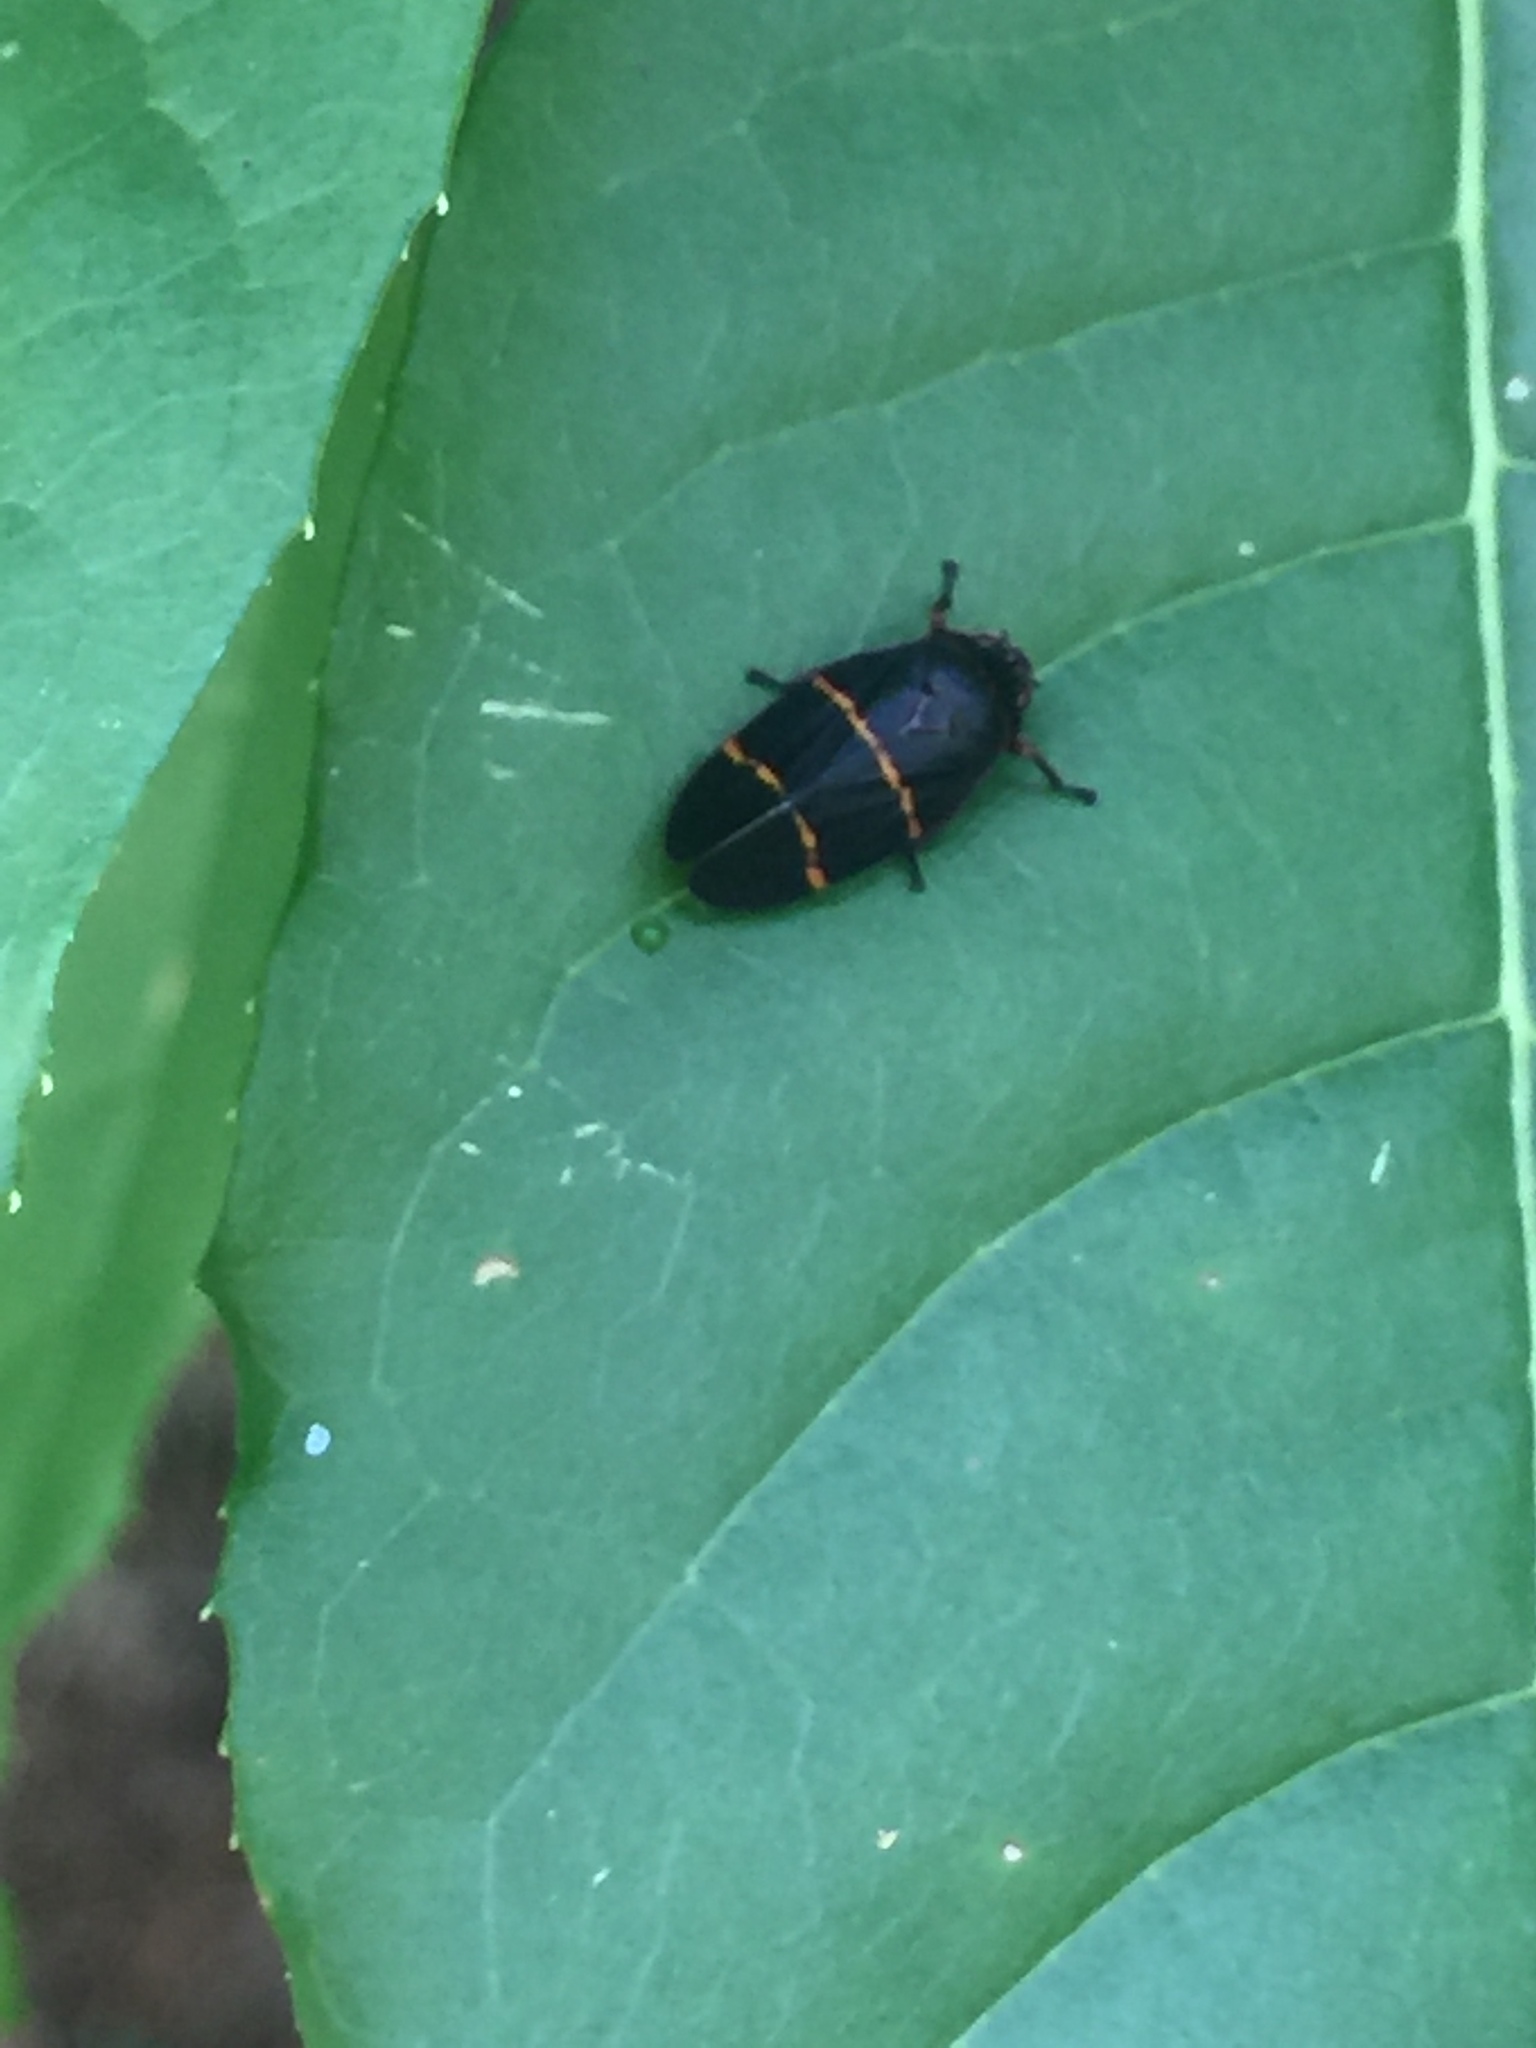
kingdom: Animalia
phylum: Arthropoda
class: Insecta
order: Hemiptera
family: Cercopidae
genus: Prosapia
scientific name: Prosapia bicincta
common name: Twolined spittlebug
